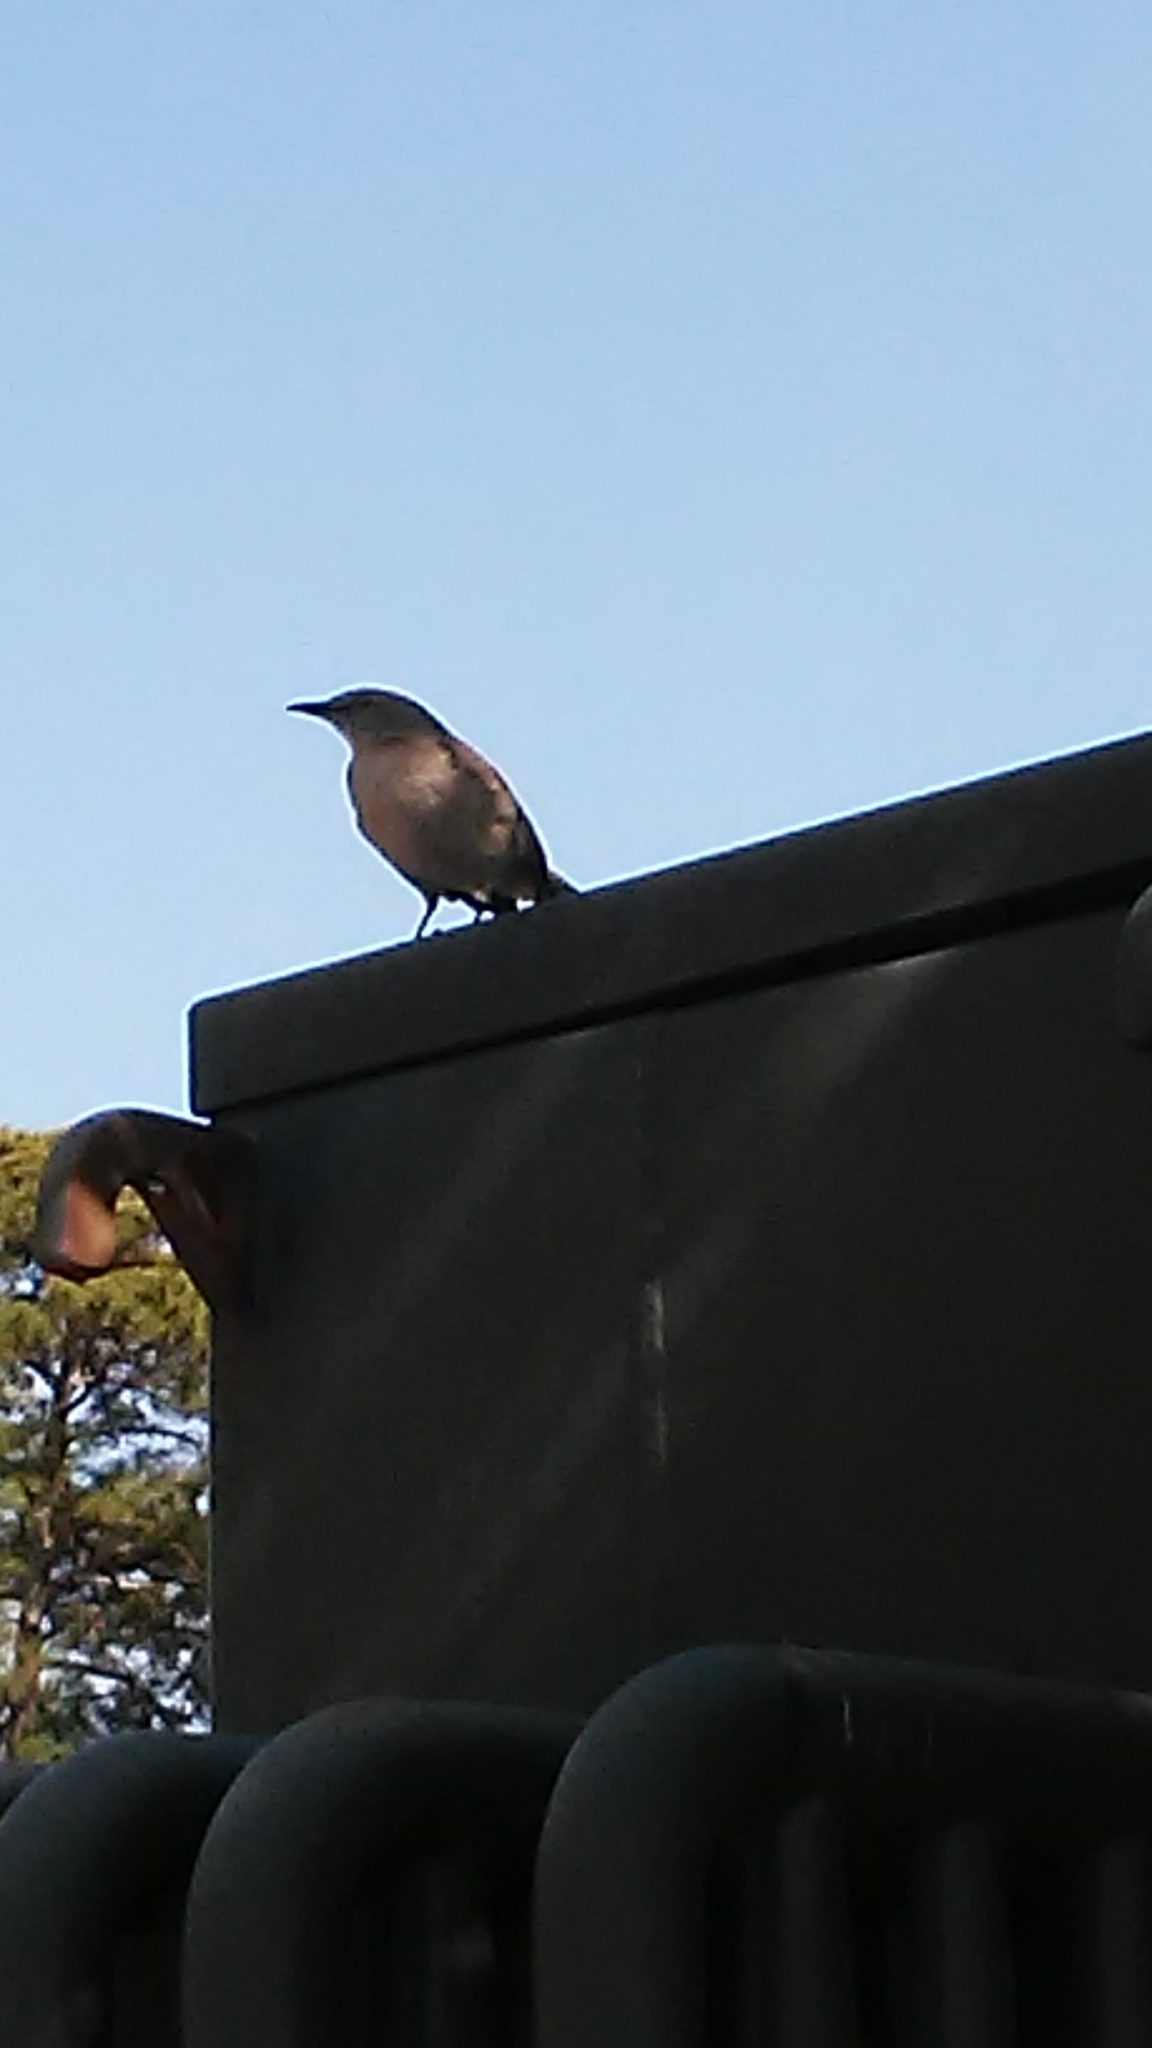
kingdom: Animalia
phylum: Chordata
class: Aves
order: Passeriformes
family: Mimidae
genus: Mimus
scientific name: Mimus polyglottos
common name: Northern mockingbird
